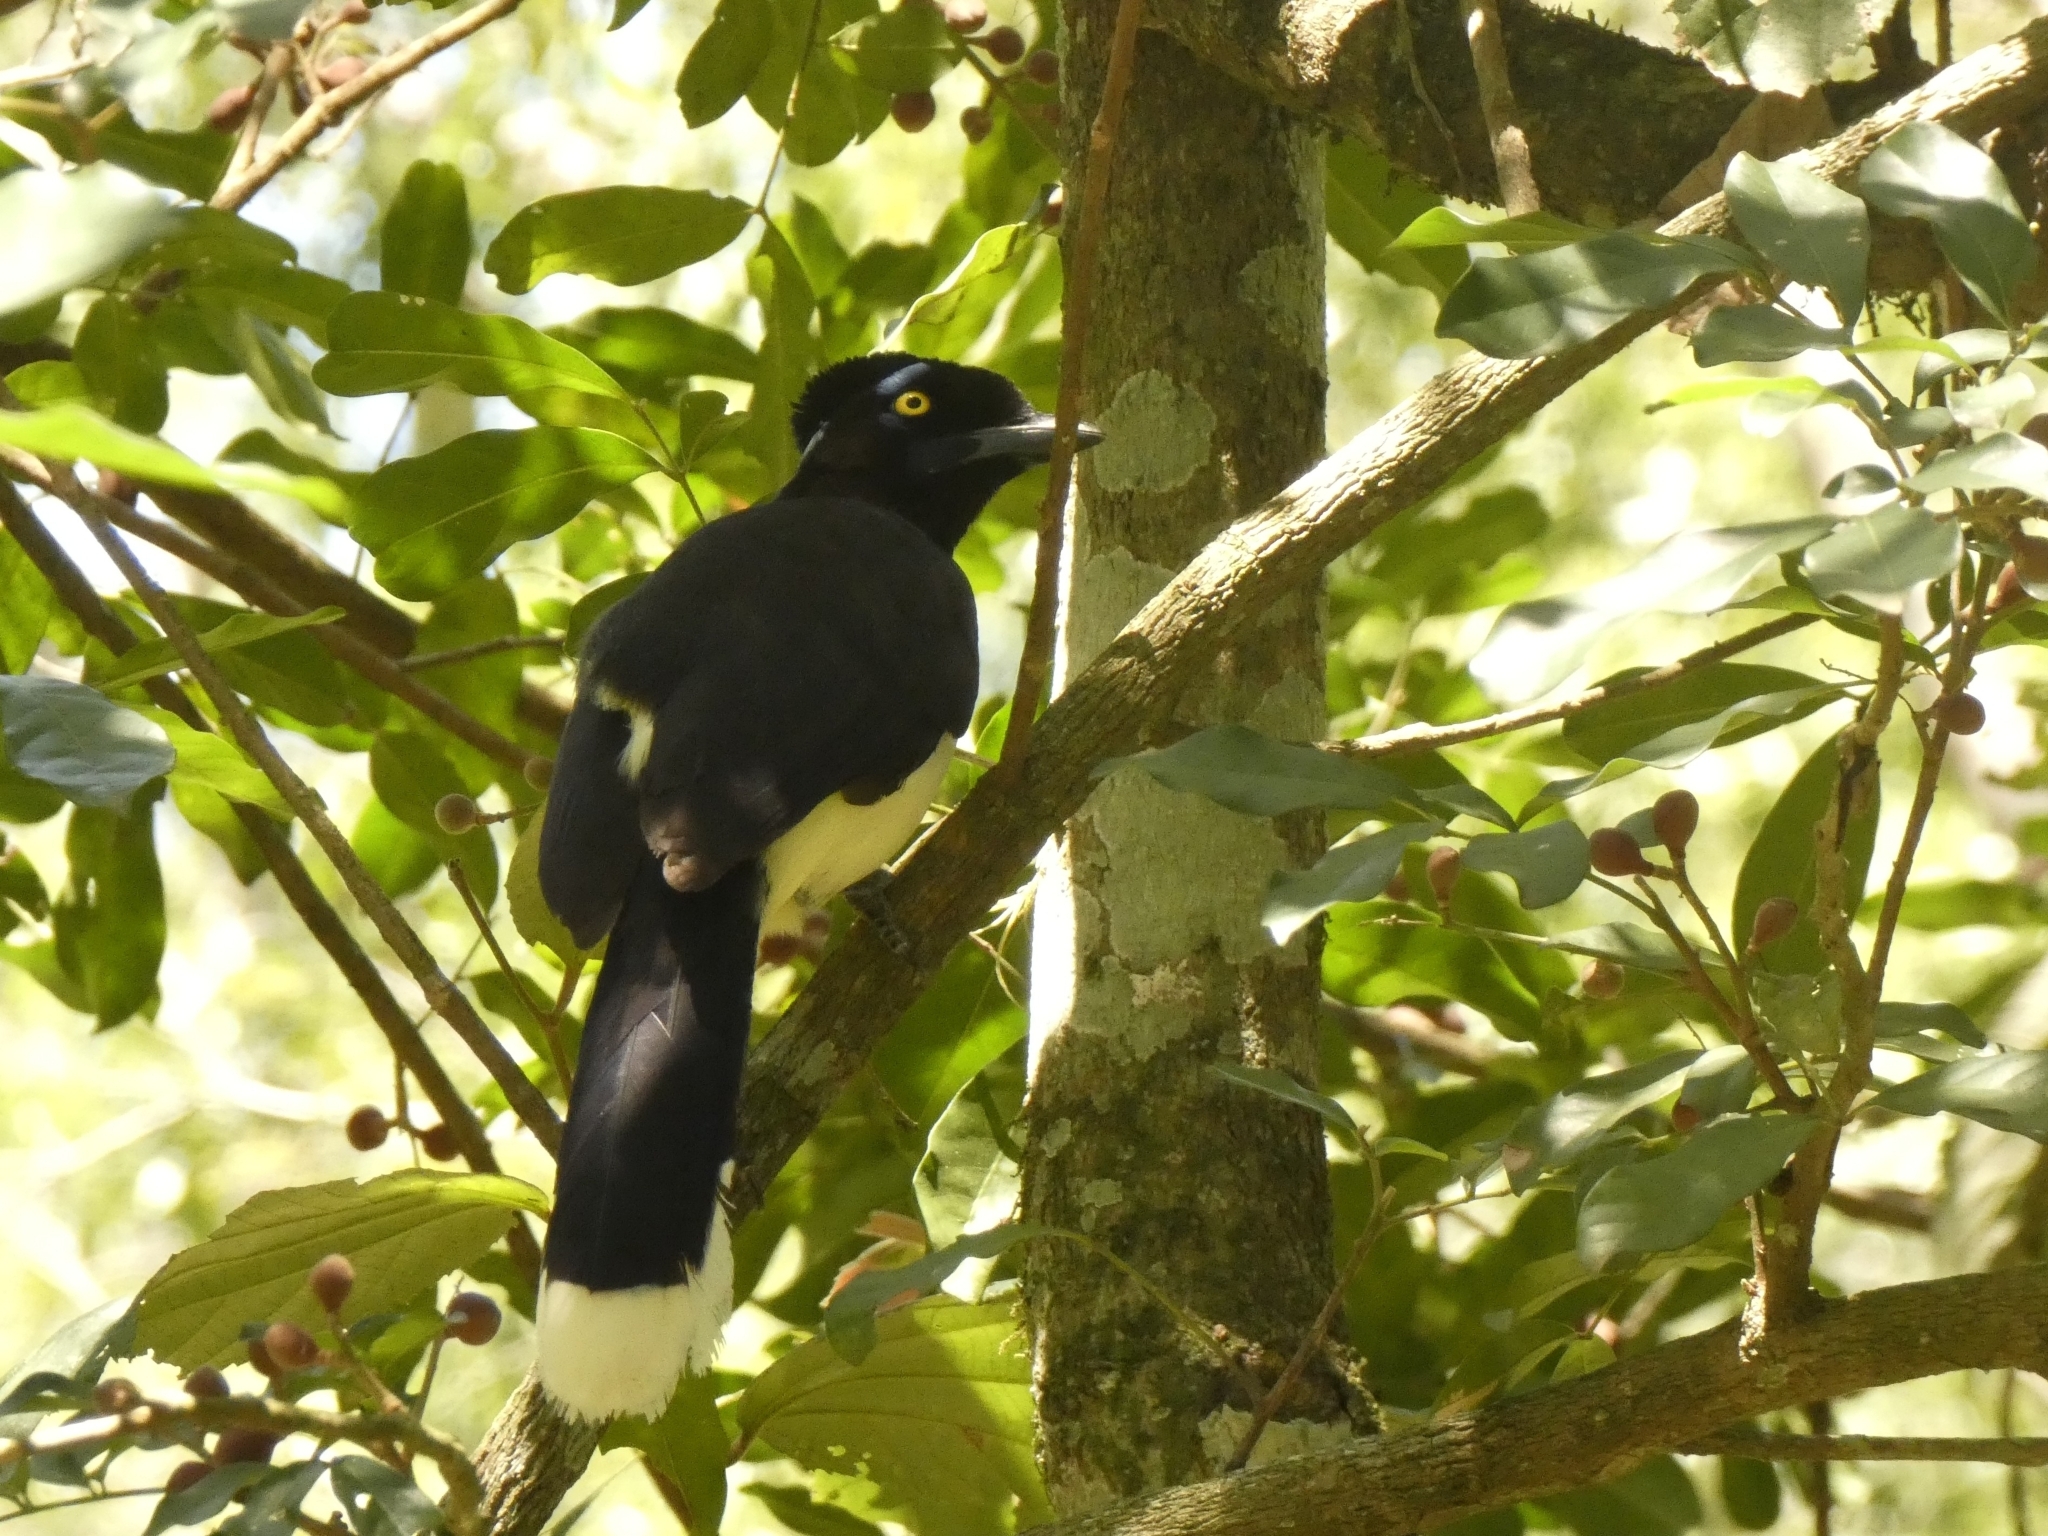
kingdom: Animalia
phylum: Chordata
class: Aves
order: Passeriformes
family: Corvidae
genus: Cyanocorax
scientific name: Cyanocorax chrysops
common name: Plush-crested jay
